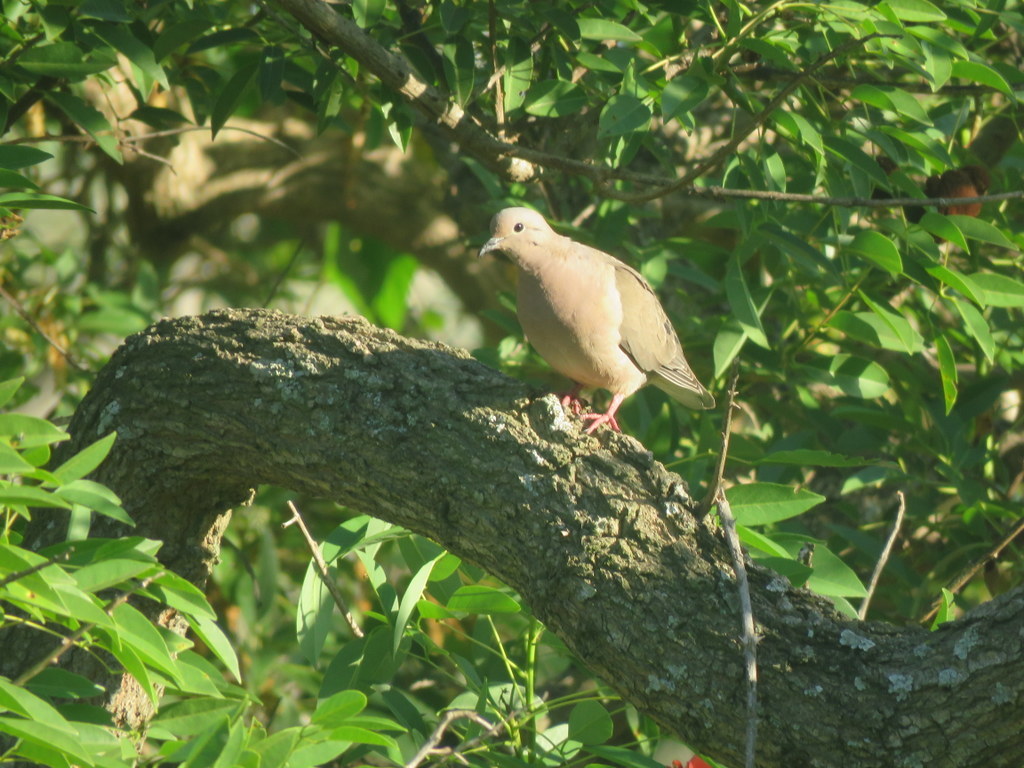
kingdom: Animalia
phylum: Chordata
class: Aves
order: Columbiformes
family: Columbidae
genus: Zenaida
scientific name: Zenaida auriculata
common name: Eared dove
